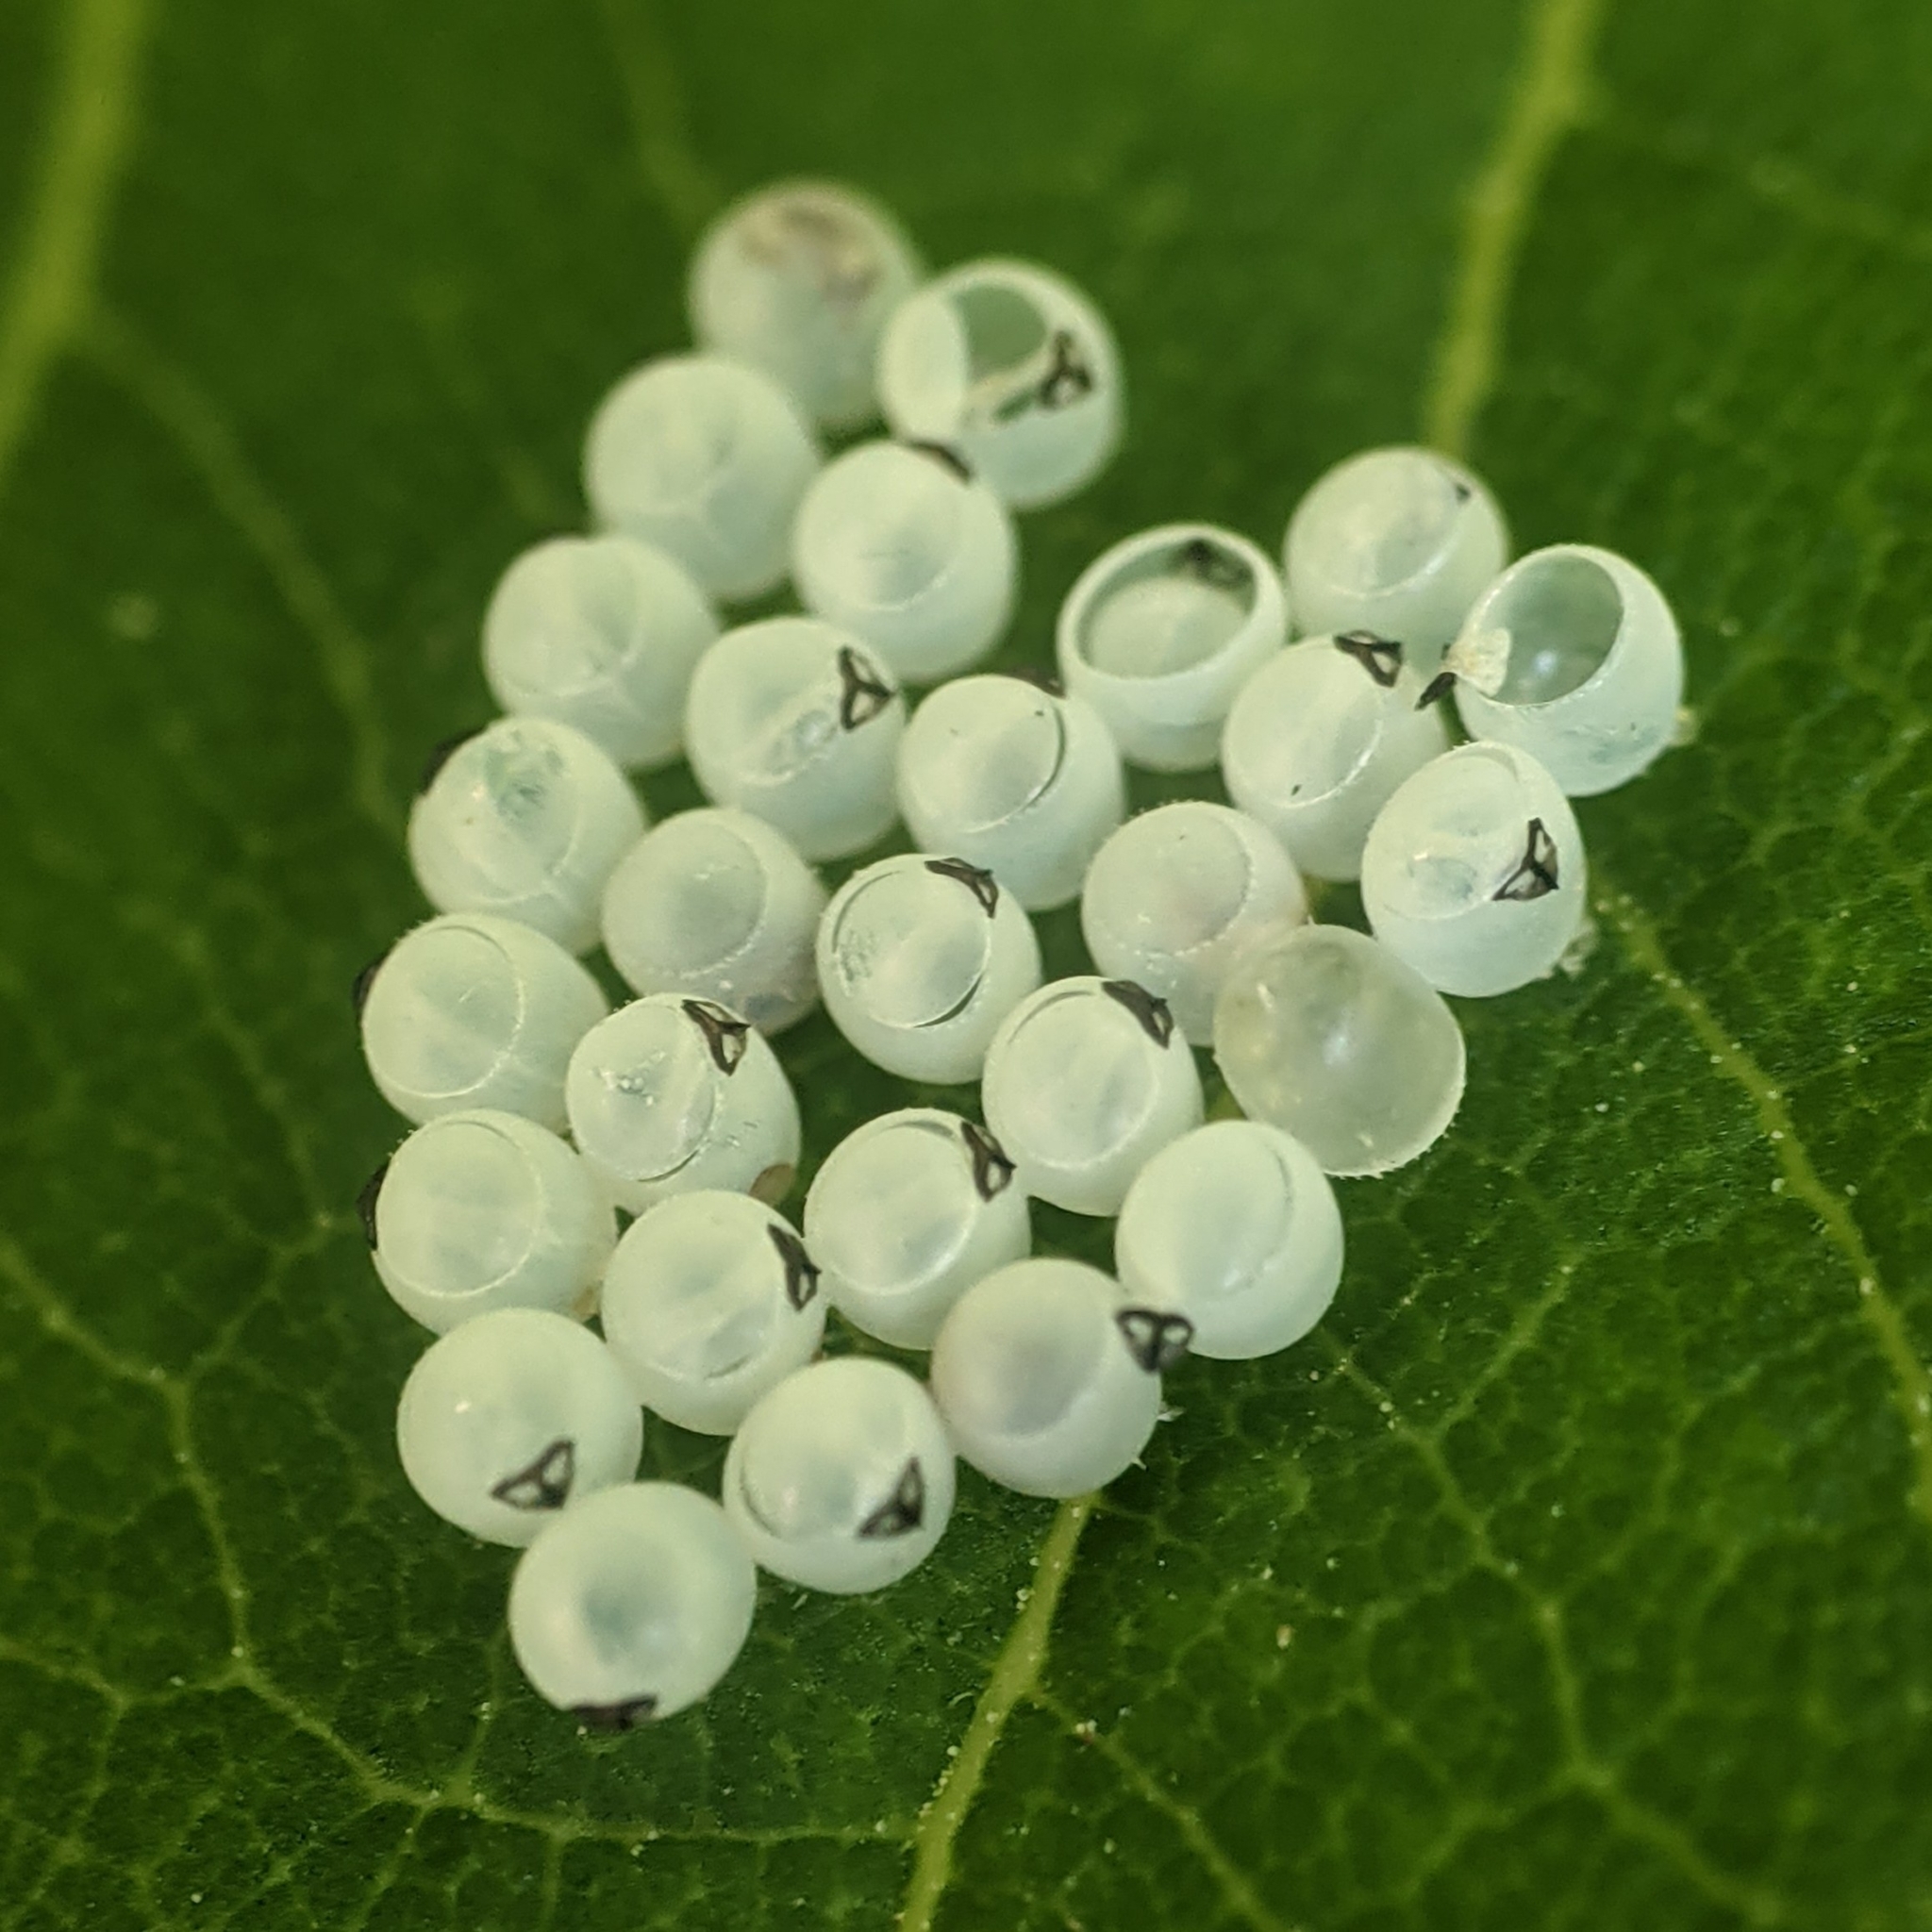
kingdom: Animalia
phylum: Arthropoda
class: Insecta
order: Hemiptera
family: Pentatomidae
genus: Halyomorpha
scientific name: Halyomorpha halys
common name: Brown marmorated stink bug
